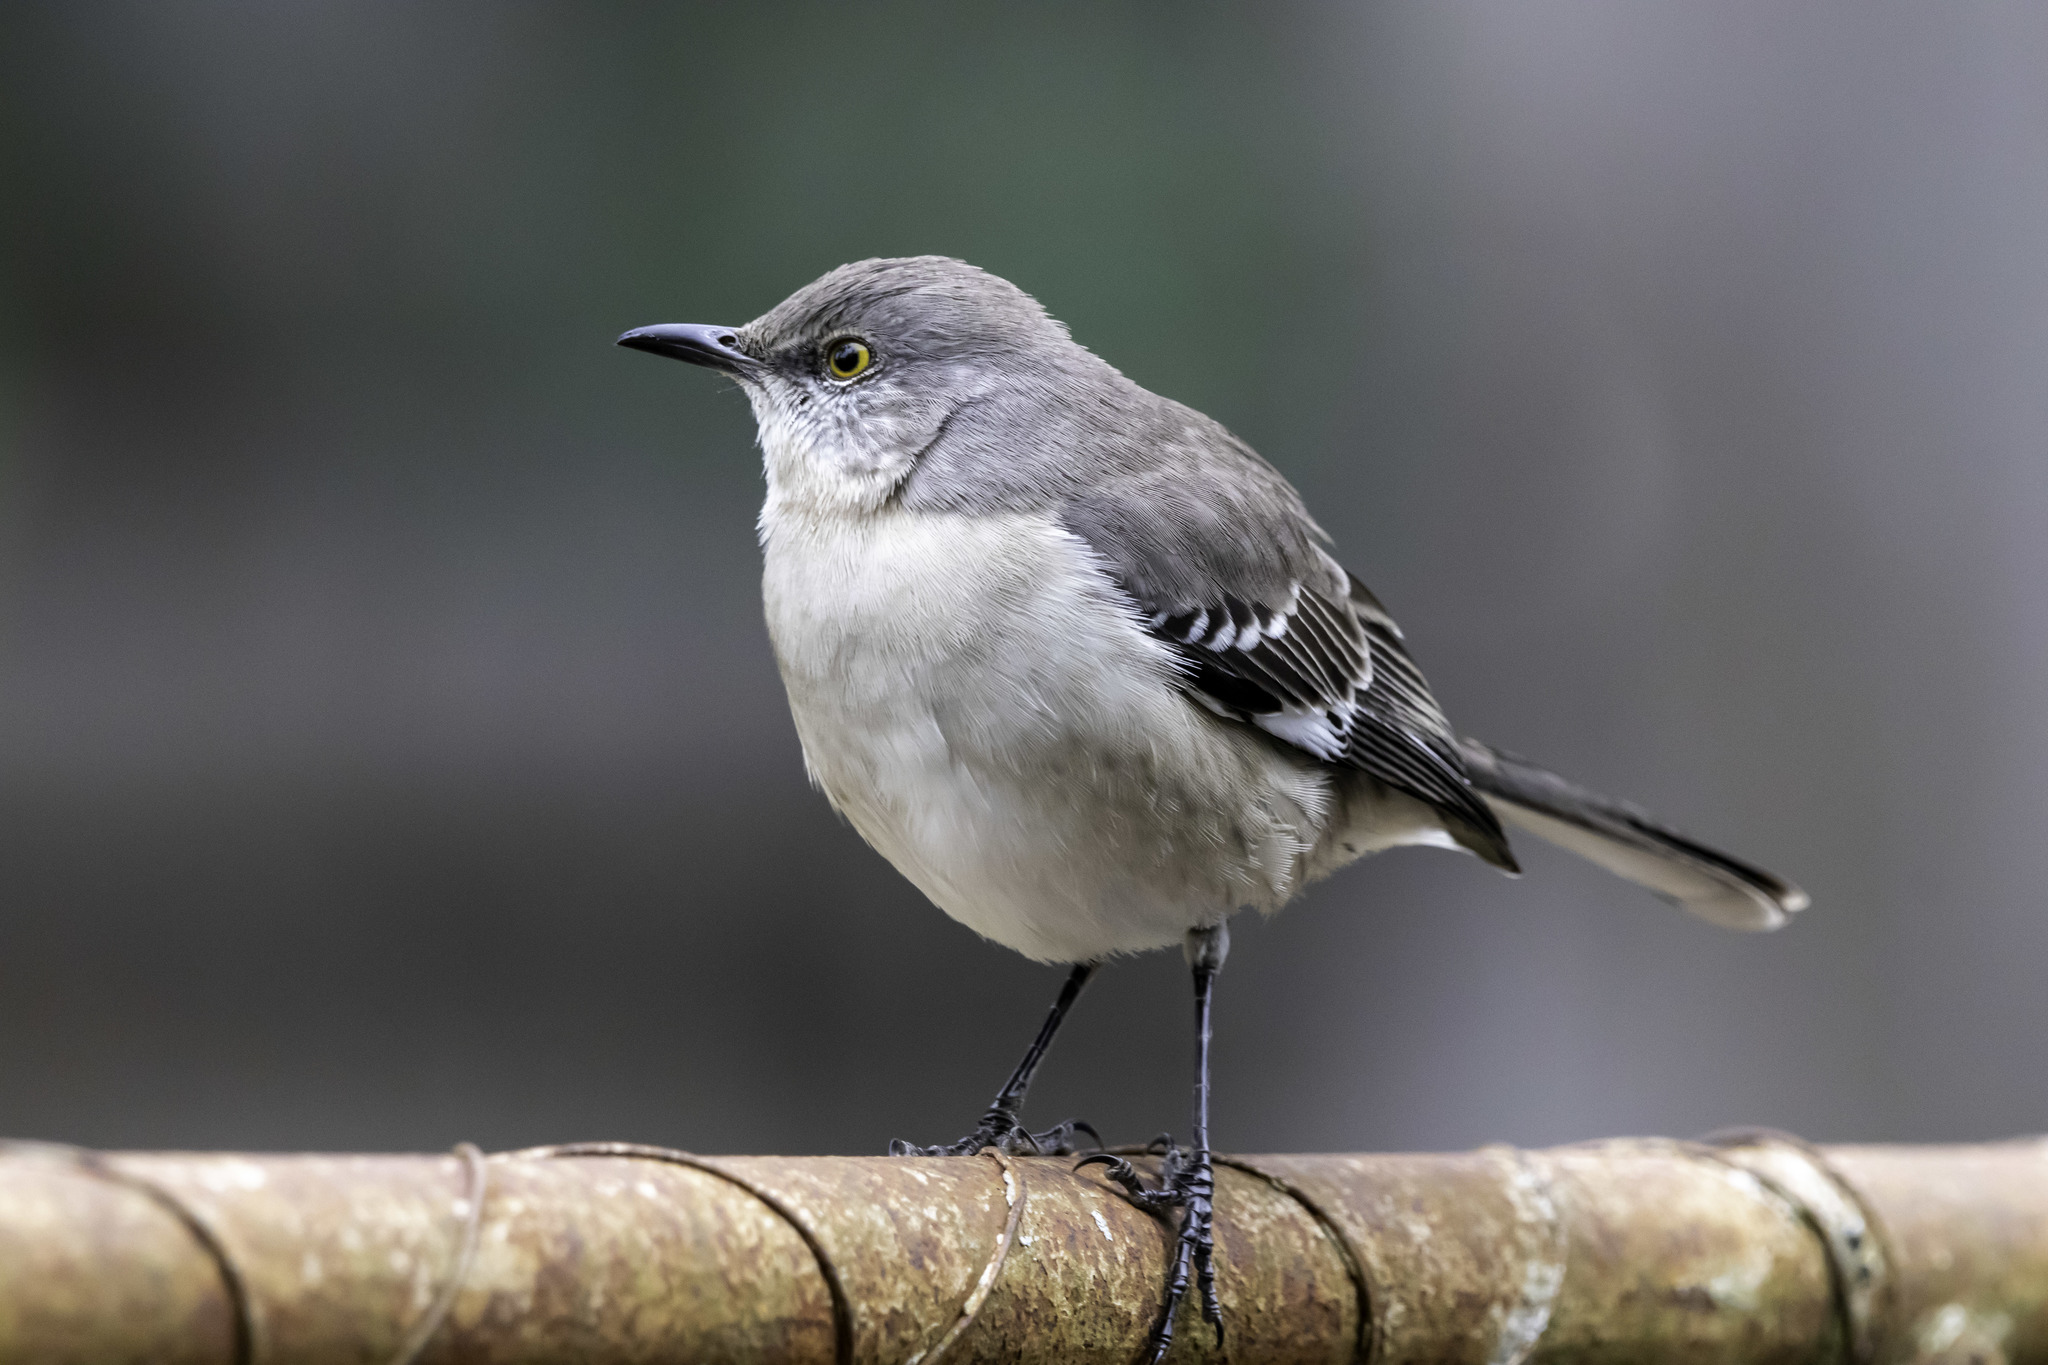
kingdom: Animalia
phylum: Chordata
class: Aves
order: Passeriformes
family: Mimidae
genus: Mimus
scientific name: Mimus polyglottos
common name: Northern mockingbird
